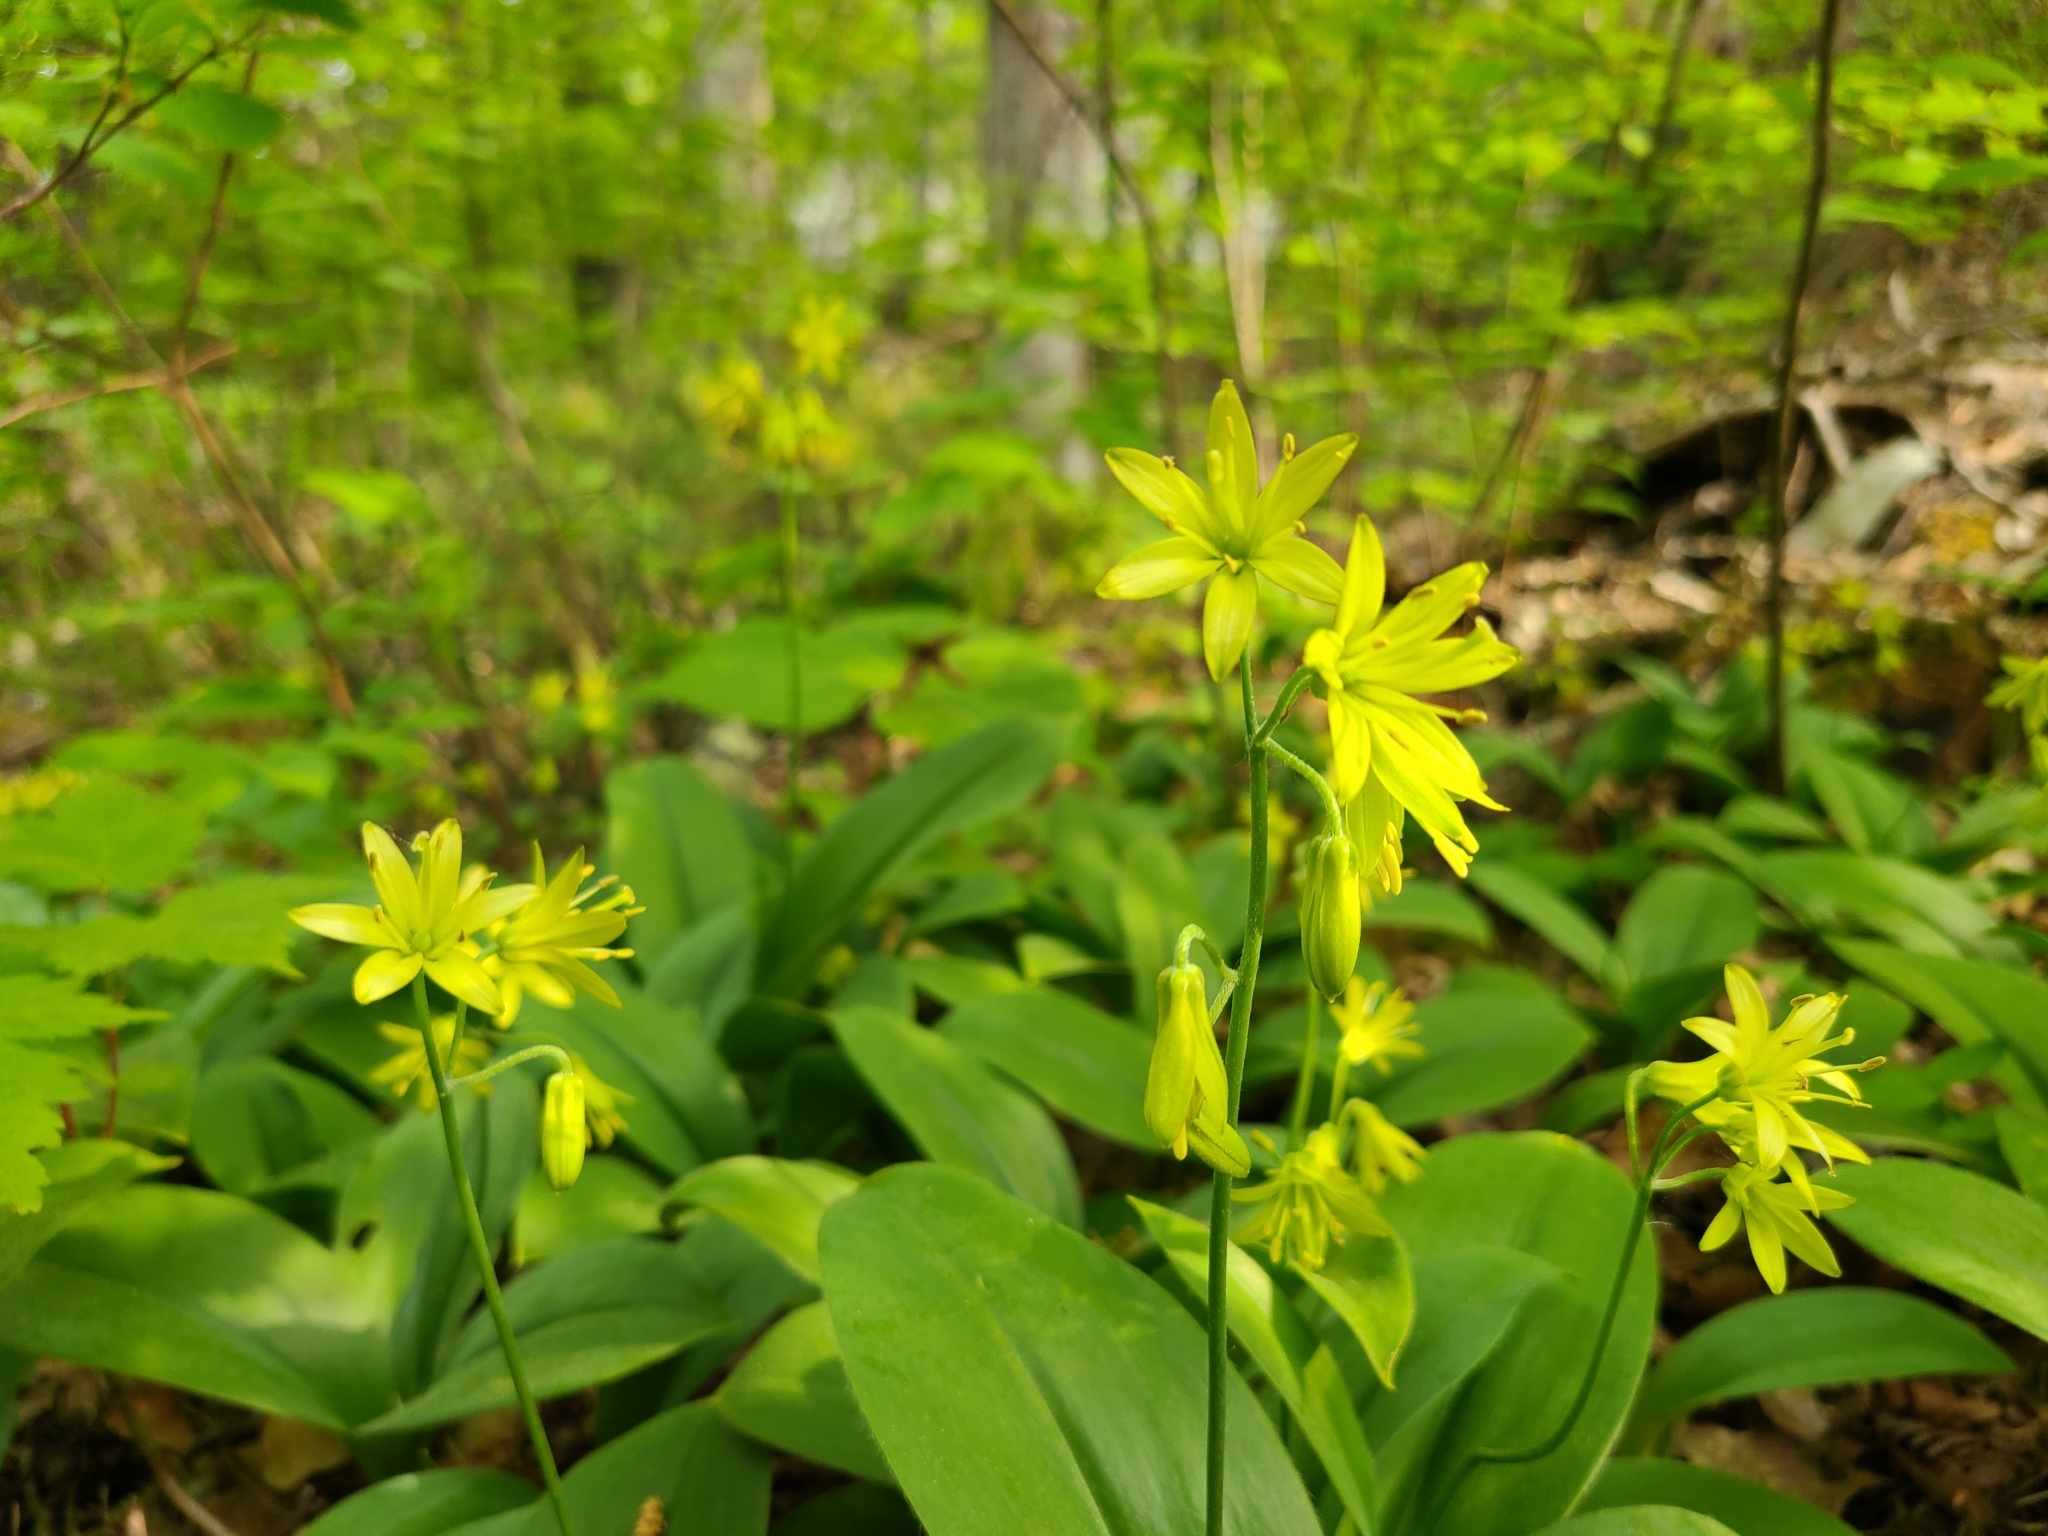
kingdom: Plantae
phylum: Tracheophyta
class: Liliopsida
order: Liliales
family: Liliaceae
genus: Clintonia
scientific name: Clintonia borealis
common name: Yellow clintonia
